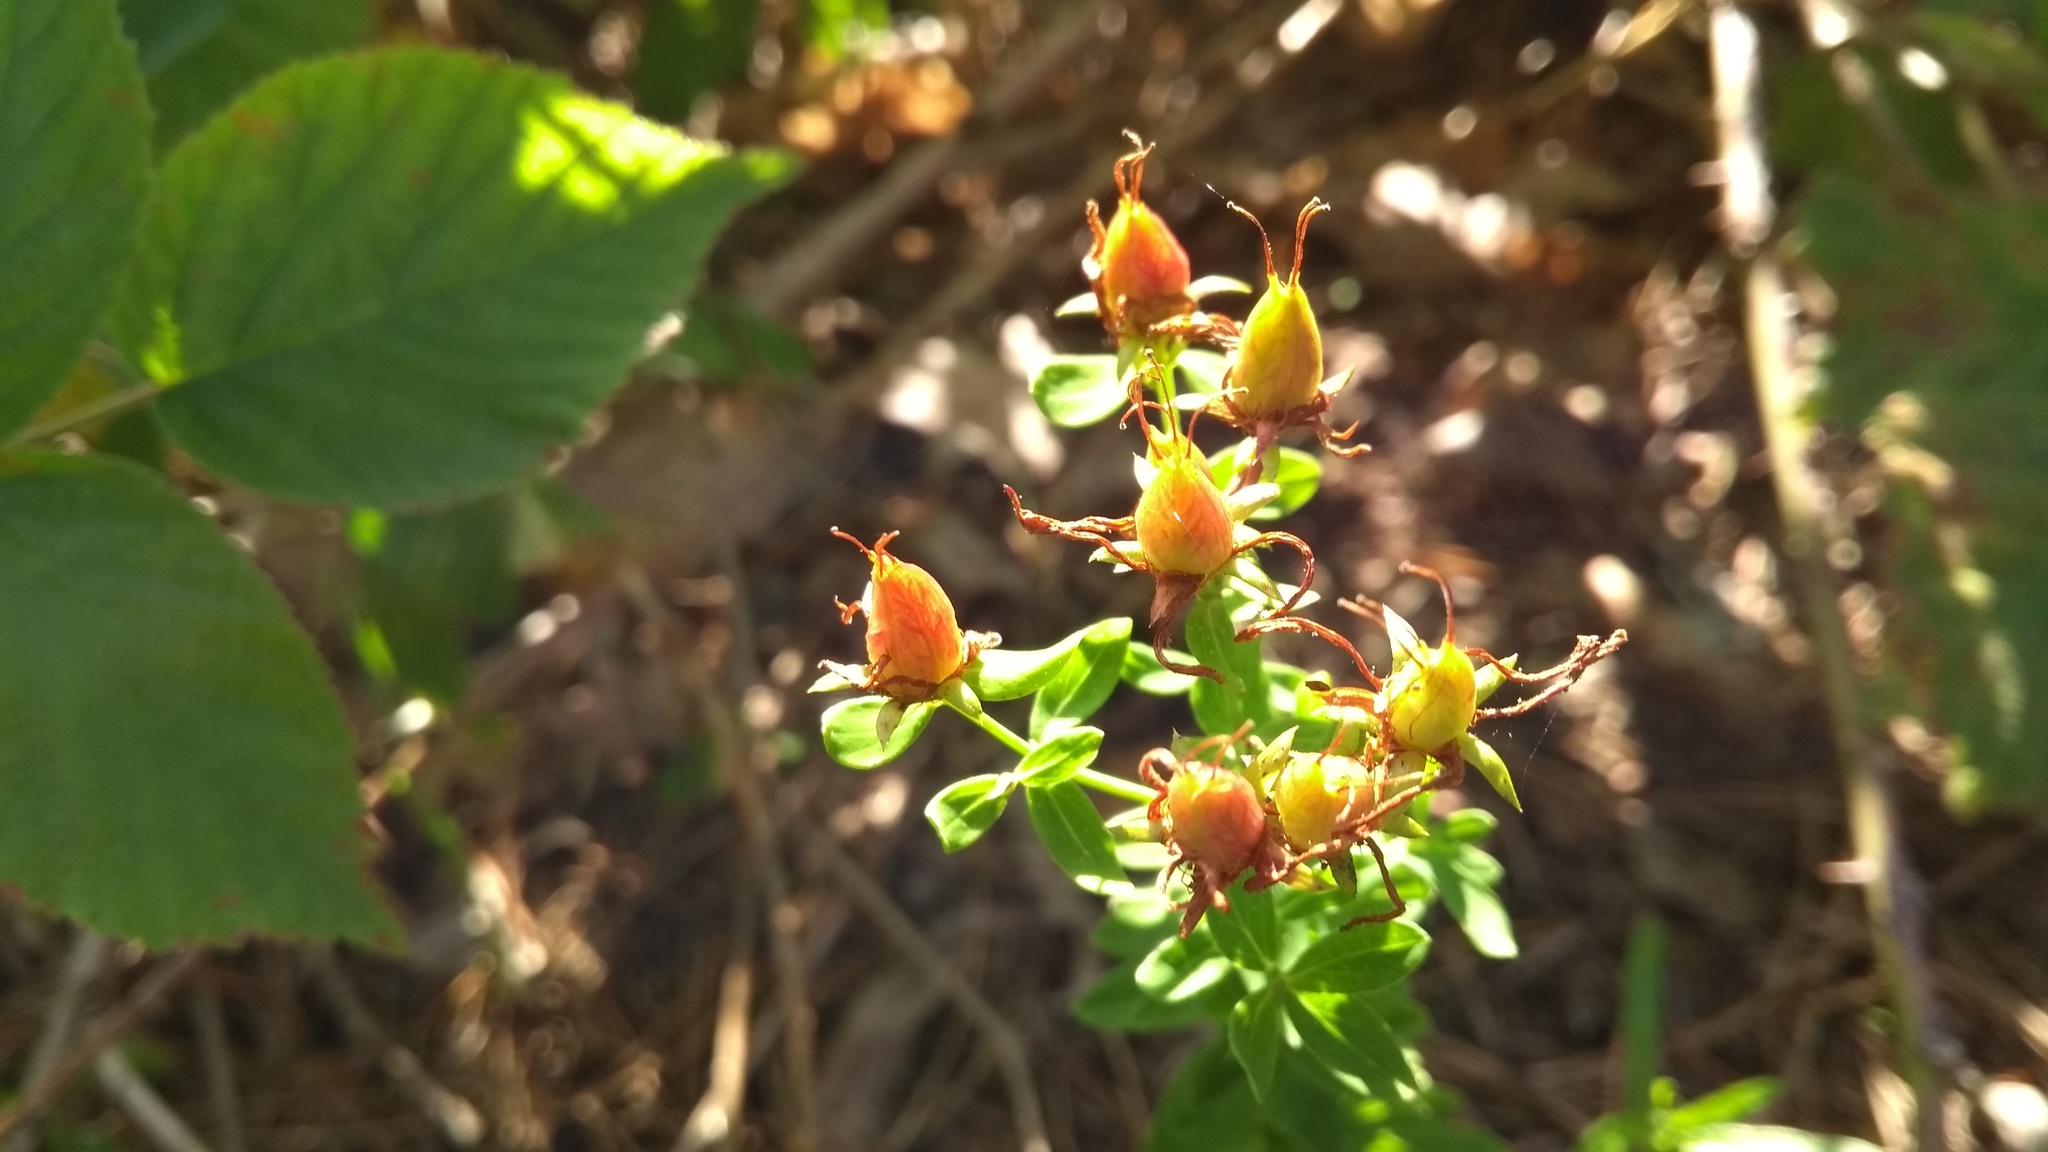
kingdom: Plantae
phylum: Tracheophyta
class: Magnoliopsida
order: Malpighiales
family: Hypericaceae
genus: Hypericum
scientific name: Hypericum
